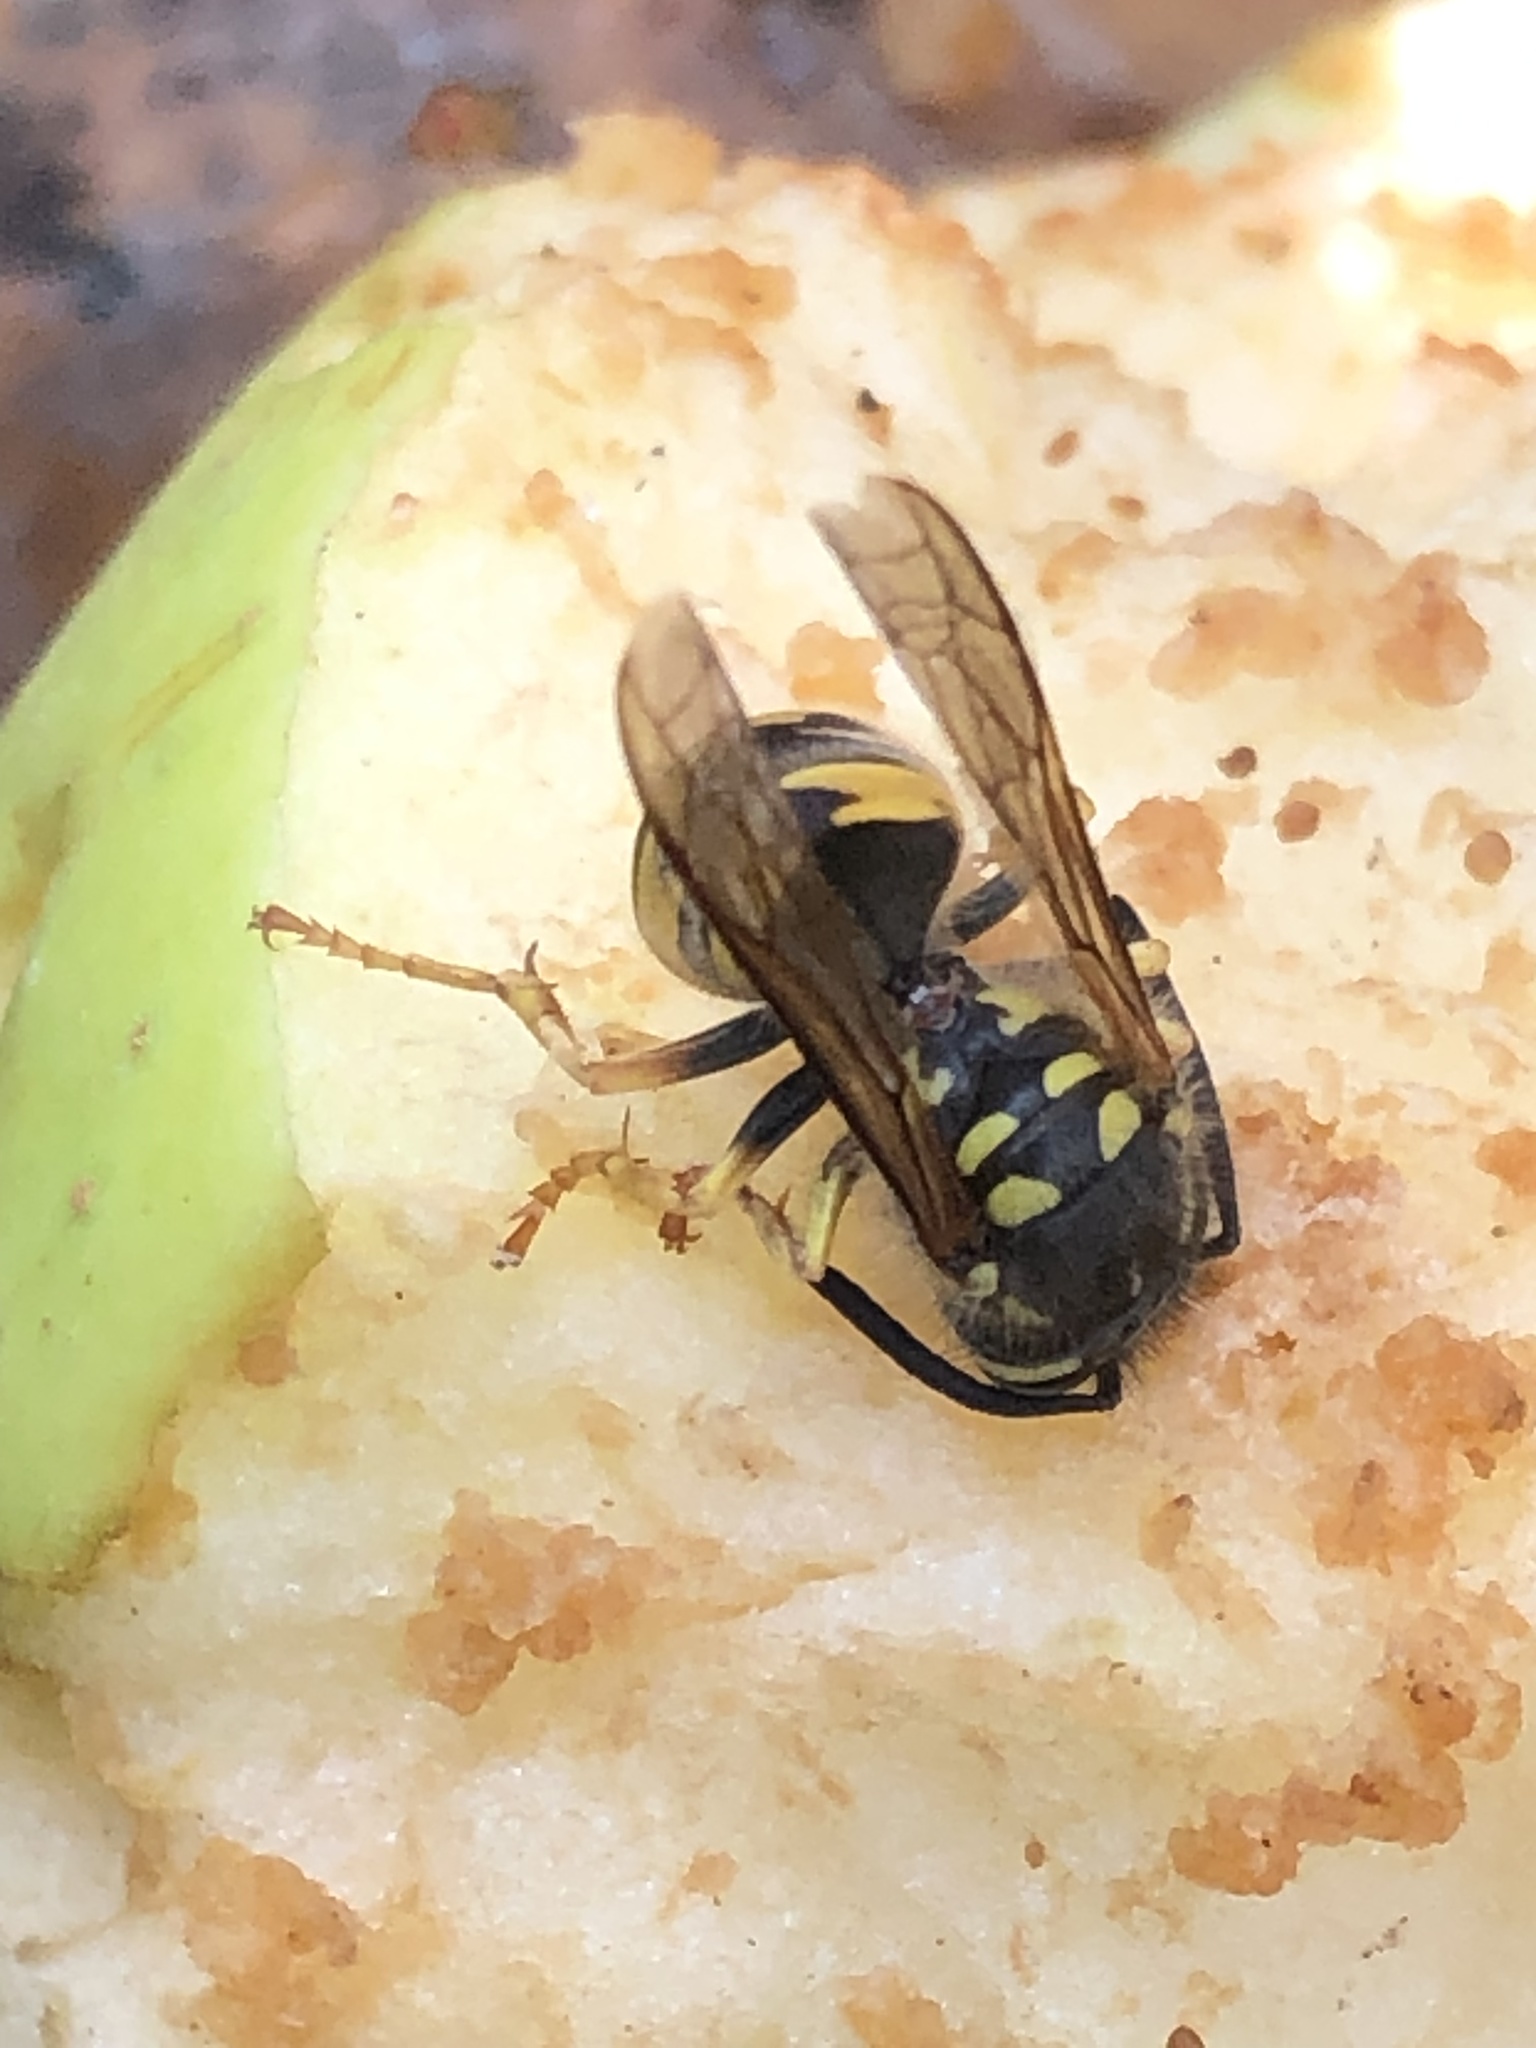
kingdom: Animalia
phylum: Arthropoda
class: Insecta
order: Hymenoptera
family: Vespidae
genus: Vespula
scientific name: Vespula germanica
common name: German wasp
